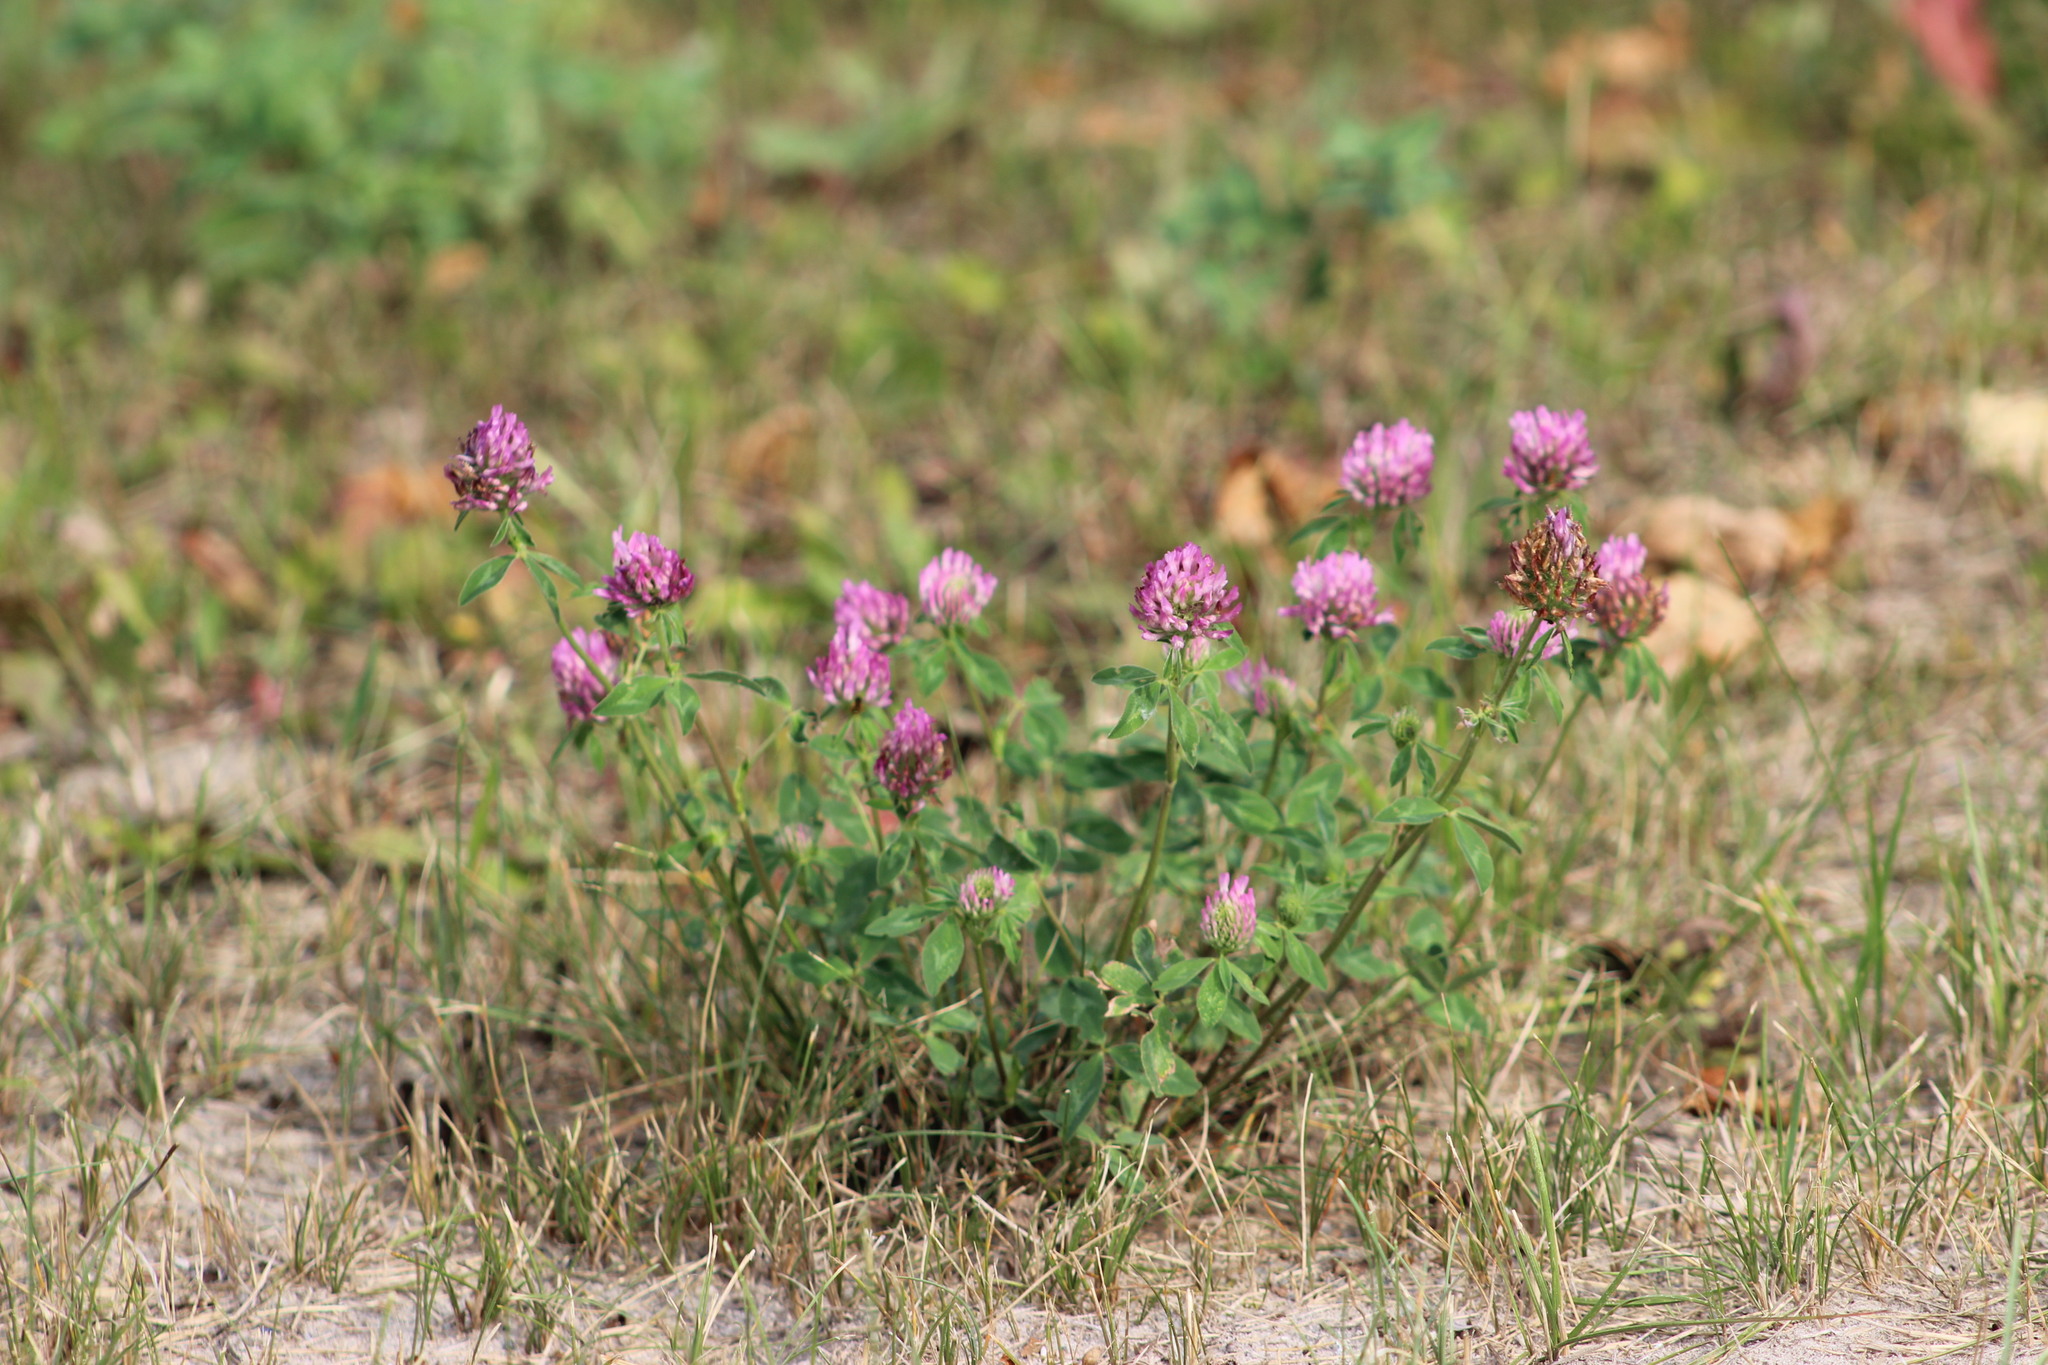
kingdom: Plantae
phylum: Tracheophyta
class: Magnoliopsida
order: Fabales
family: Fabaceae
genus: Trifolium
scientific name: Trifolium pratense
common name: Red clover
